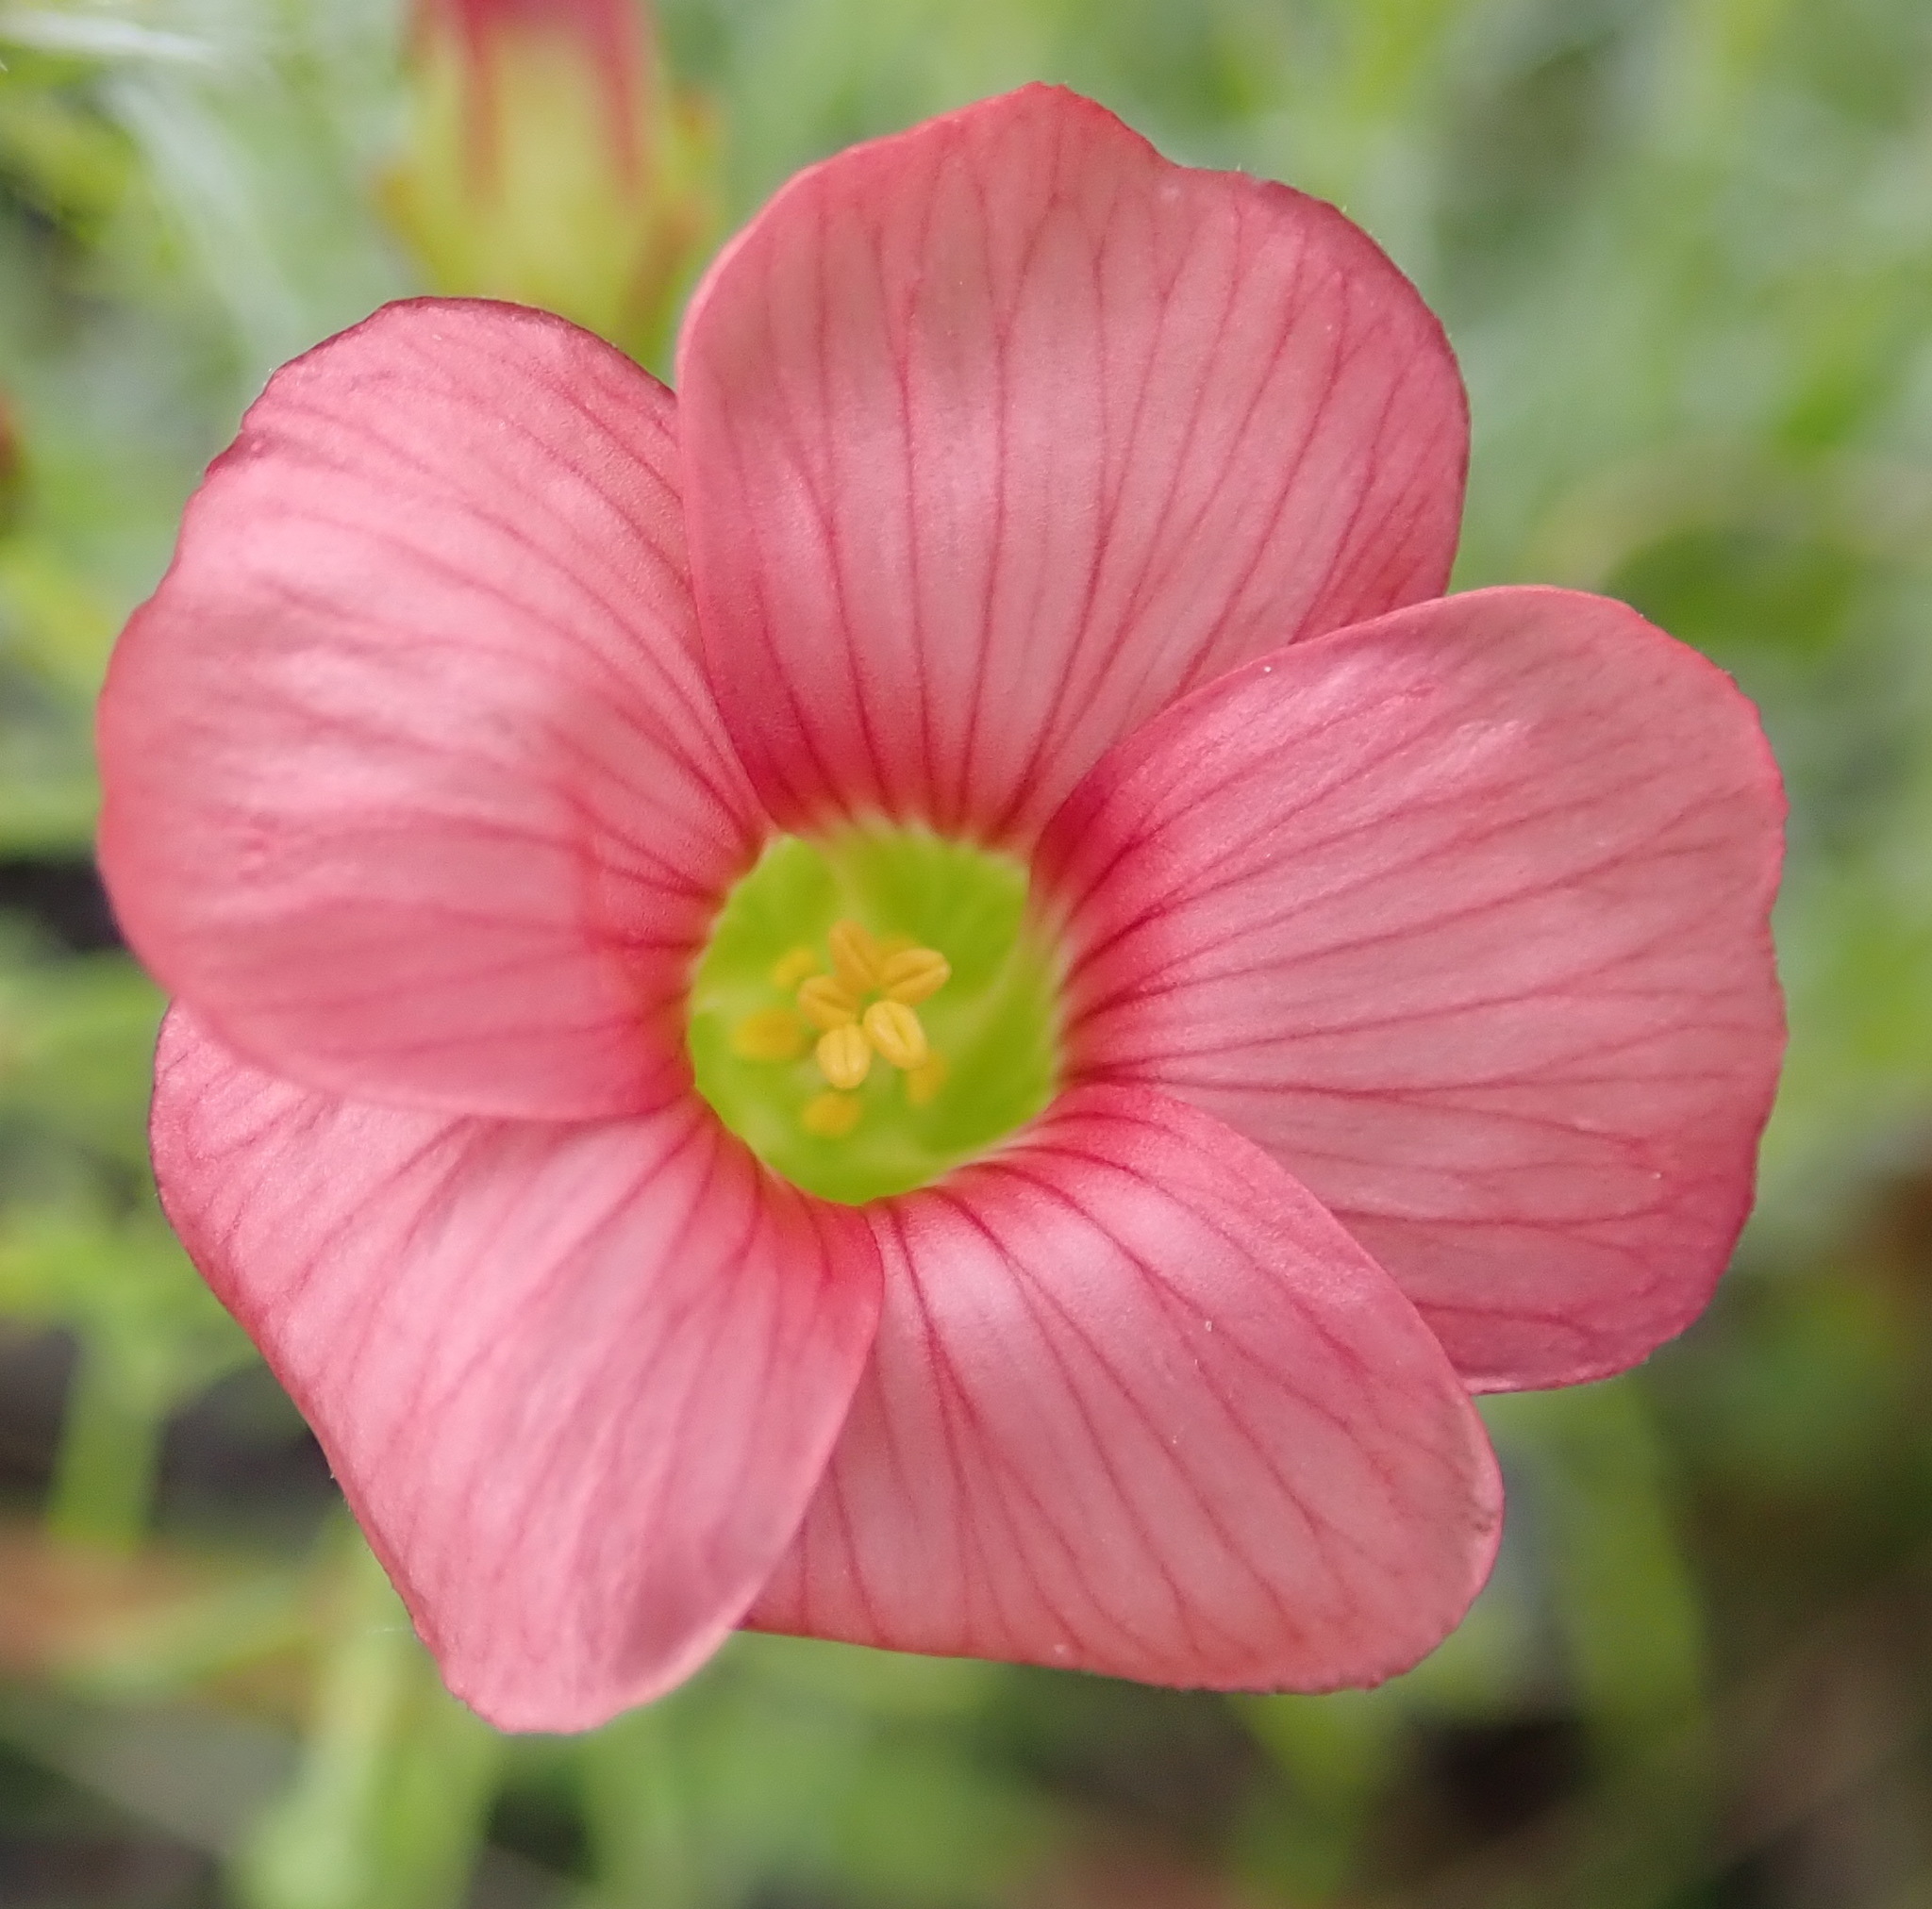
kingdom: Plantae
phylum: Tracheophyta
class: Magnoliopsida
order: Oxalidales
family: Oxalidaceae
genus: Oxalis
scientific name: Oxalis pendulifolia
